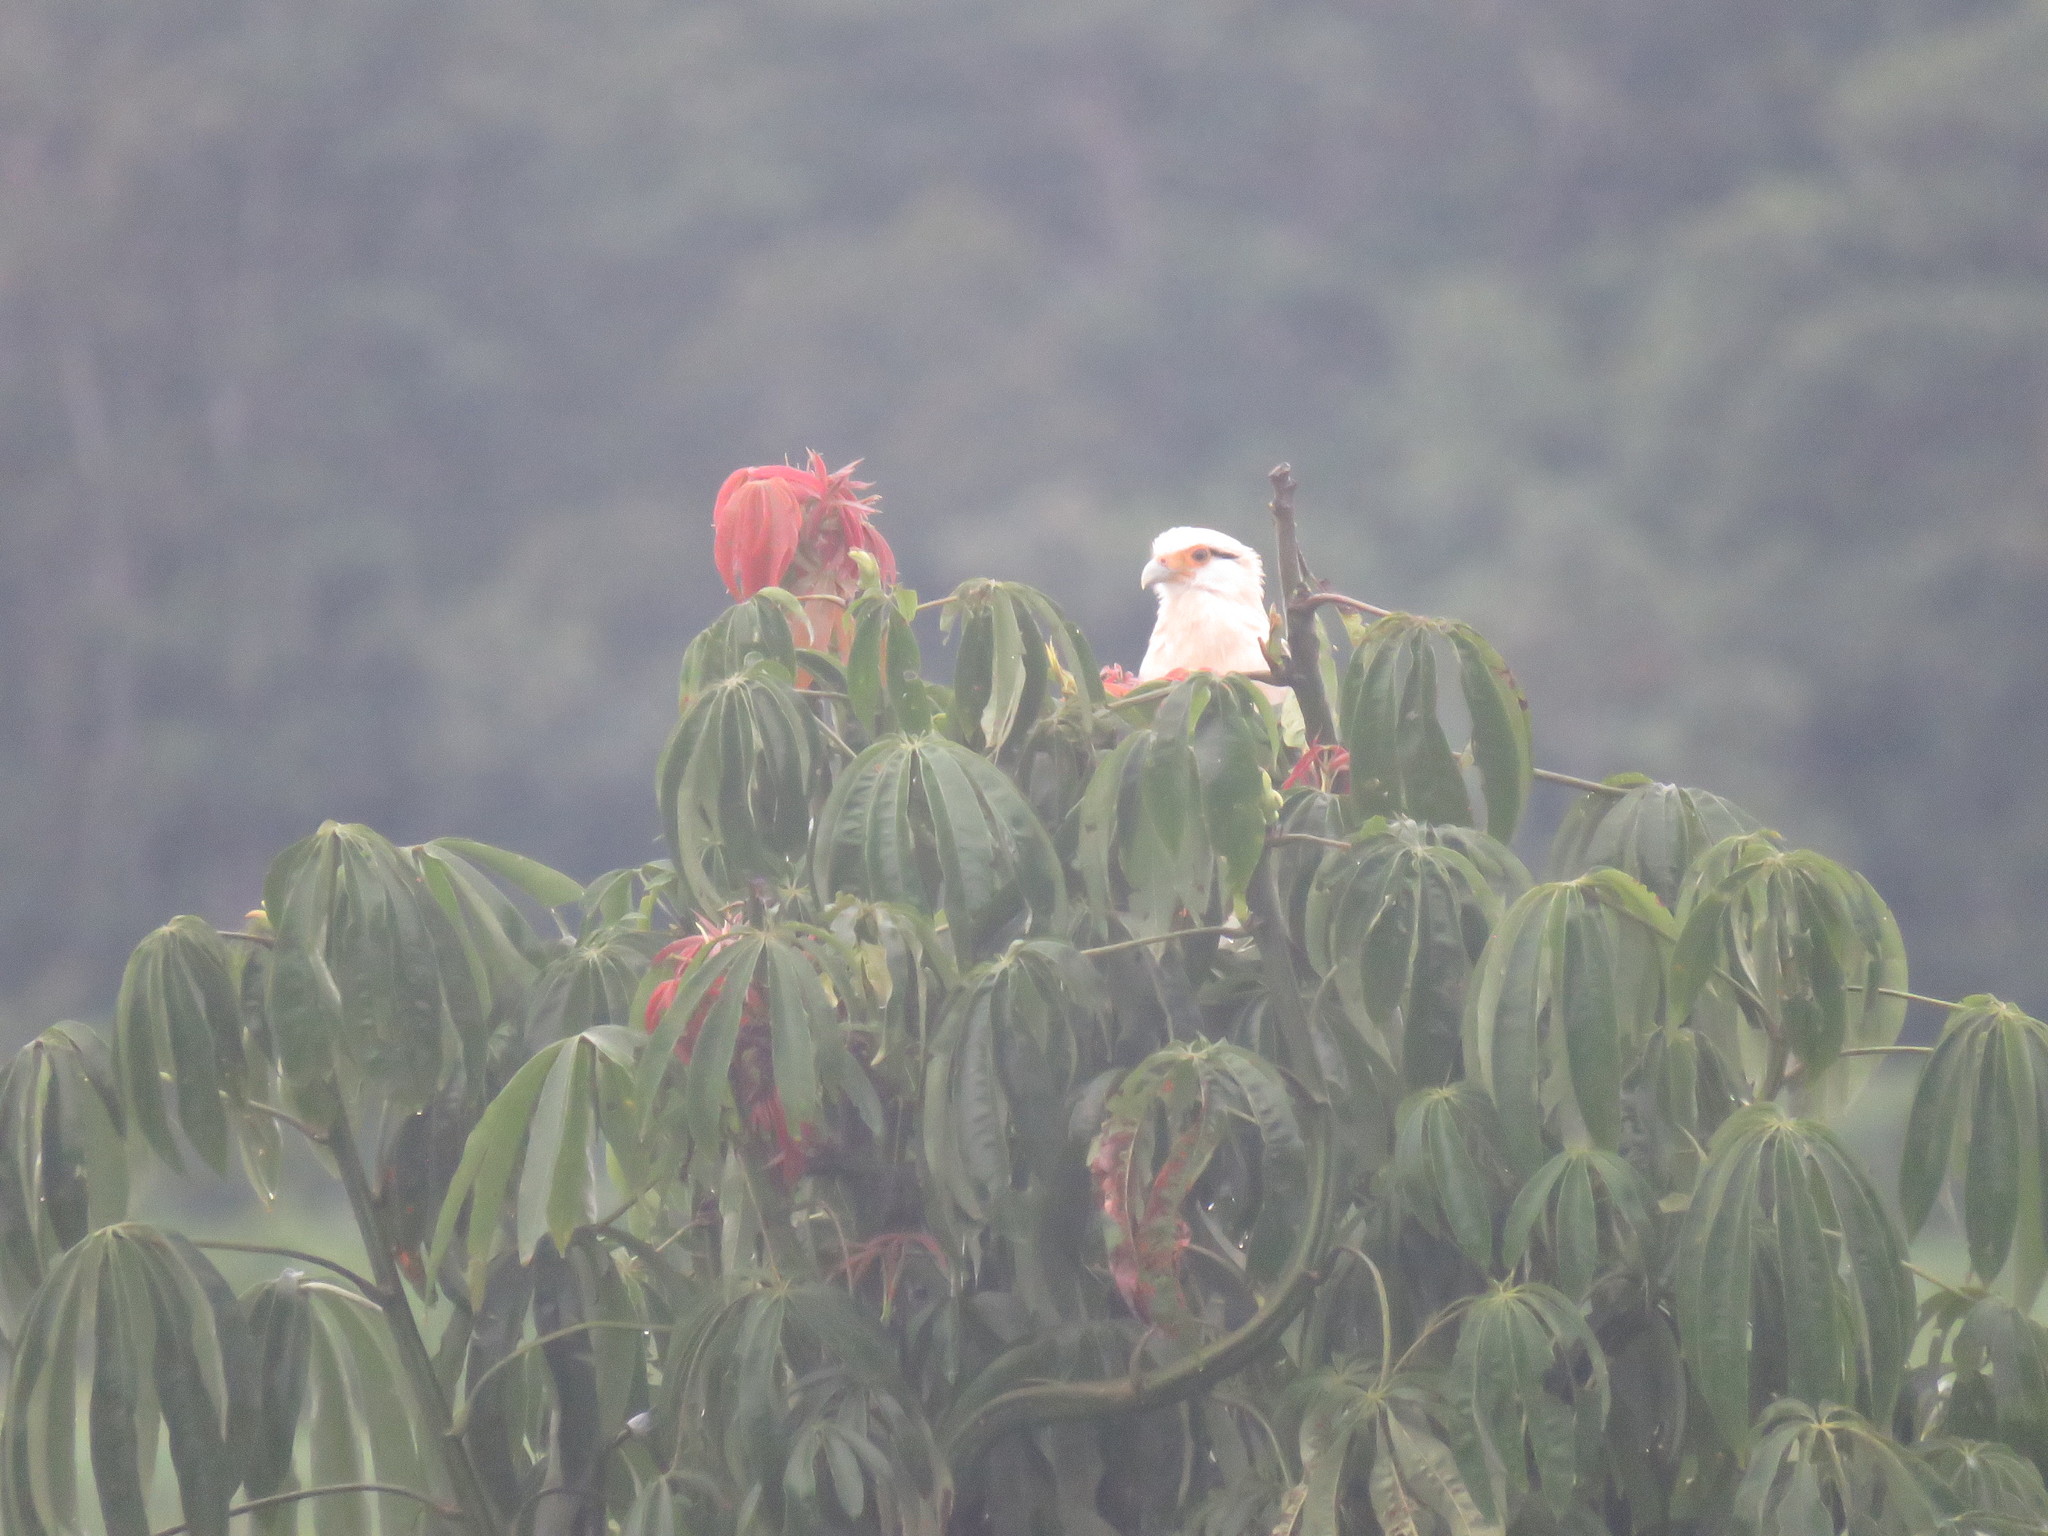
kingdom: Animalia
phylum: Chordata
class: Aves
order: Falconiformes
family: Falconidae
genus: Daptrius
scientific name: Daptrius
